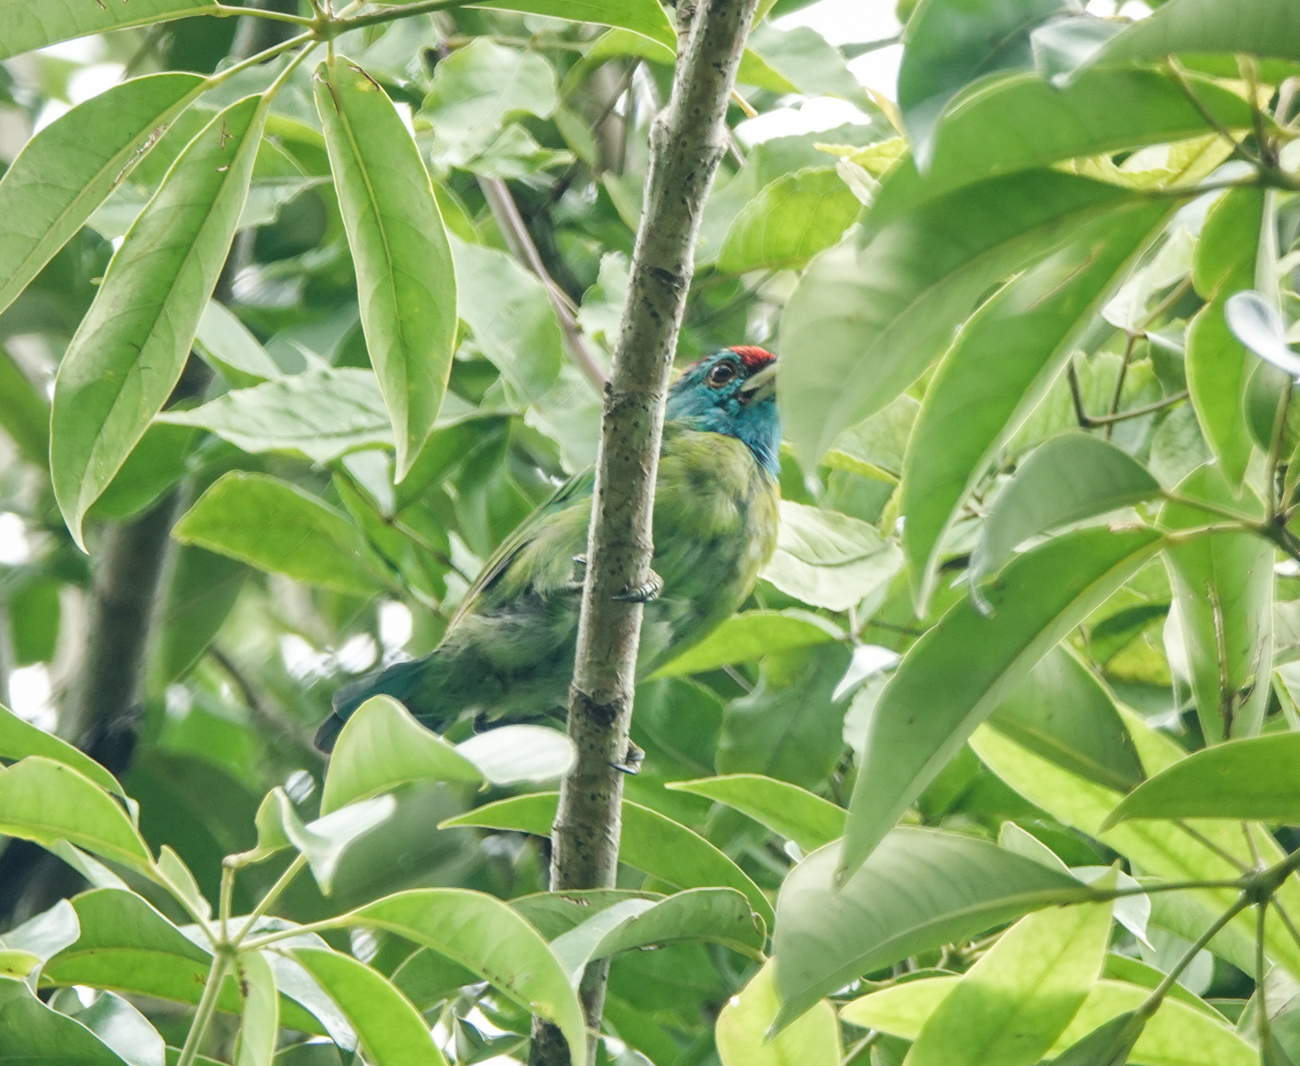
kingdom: Animalia
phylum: Chordata
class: Aves
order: Piciformes
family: Megalaimidae
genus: Psilopogon
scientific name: Psilopogon asiaticus
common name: Blue-throated barbet
